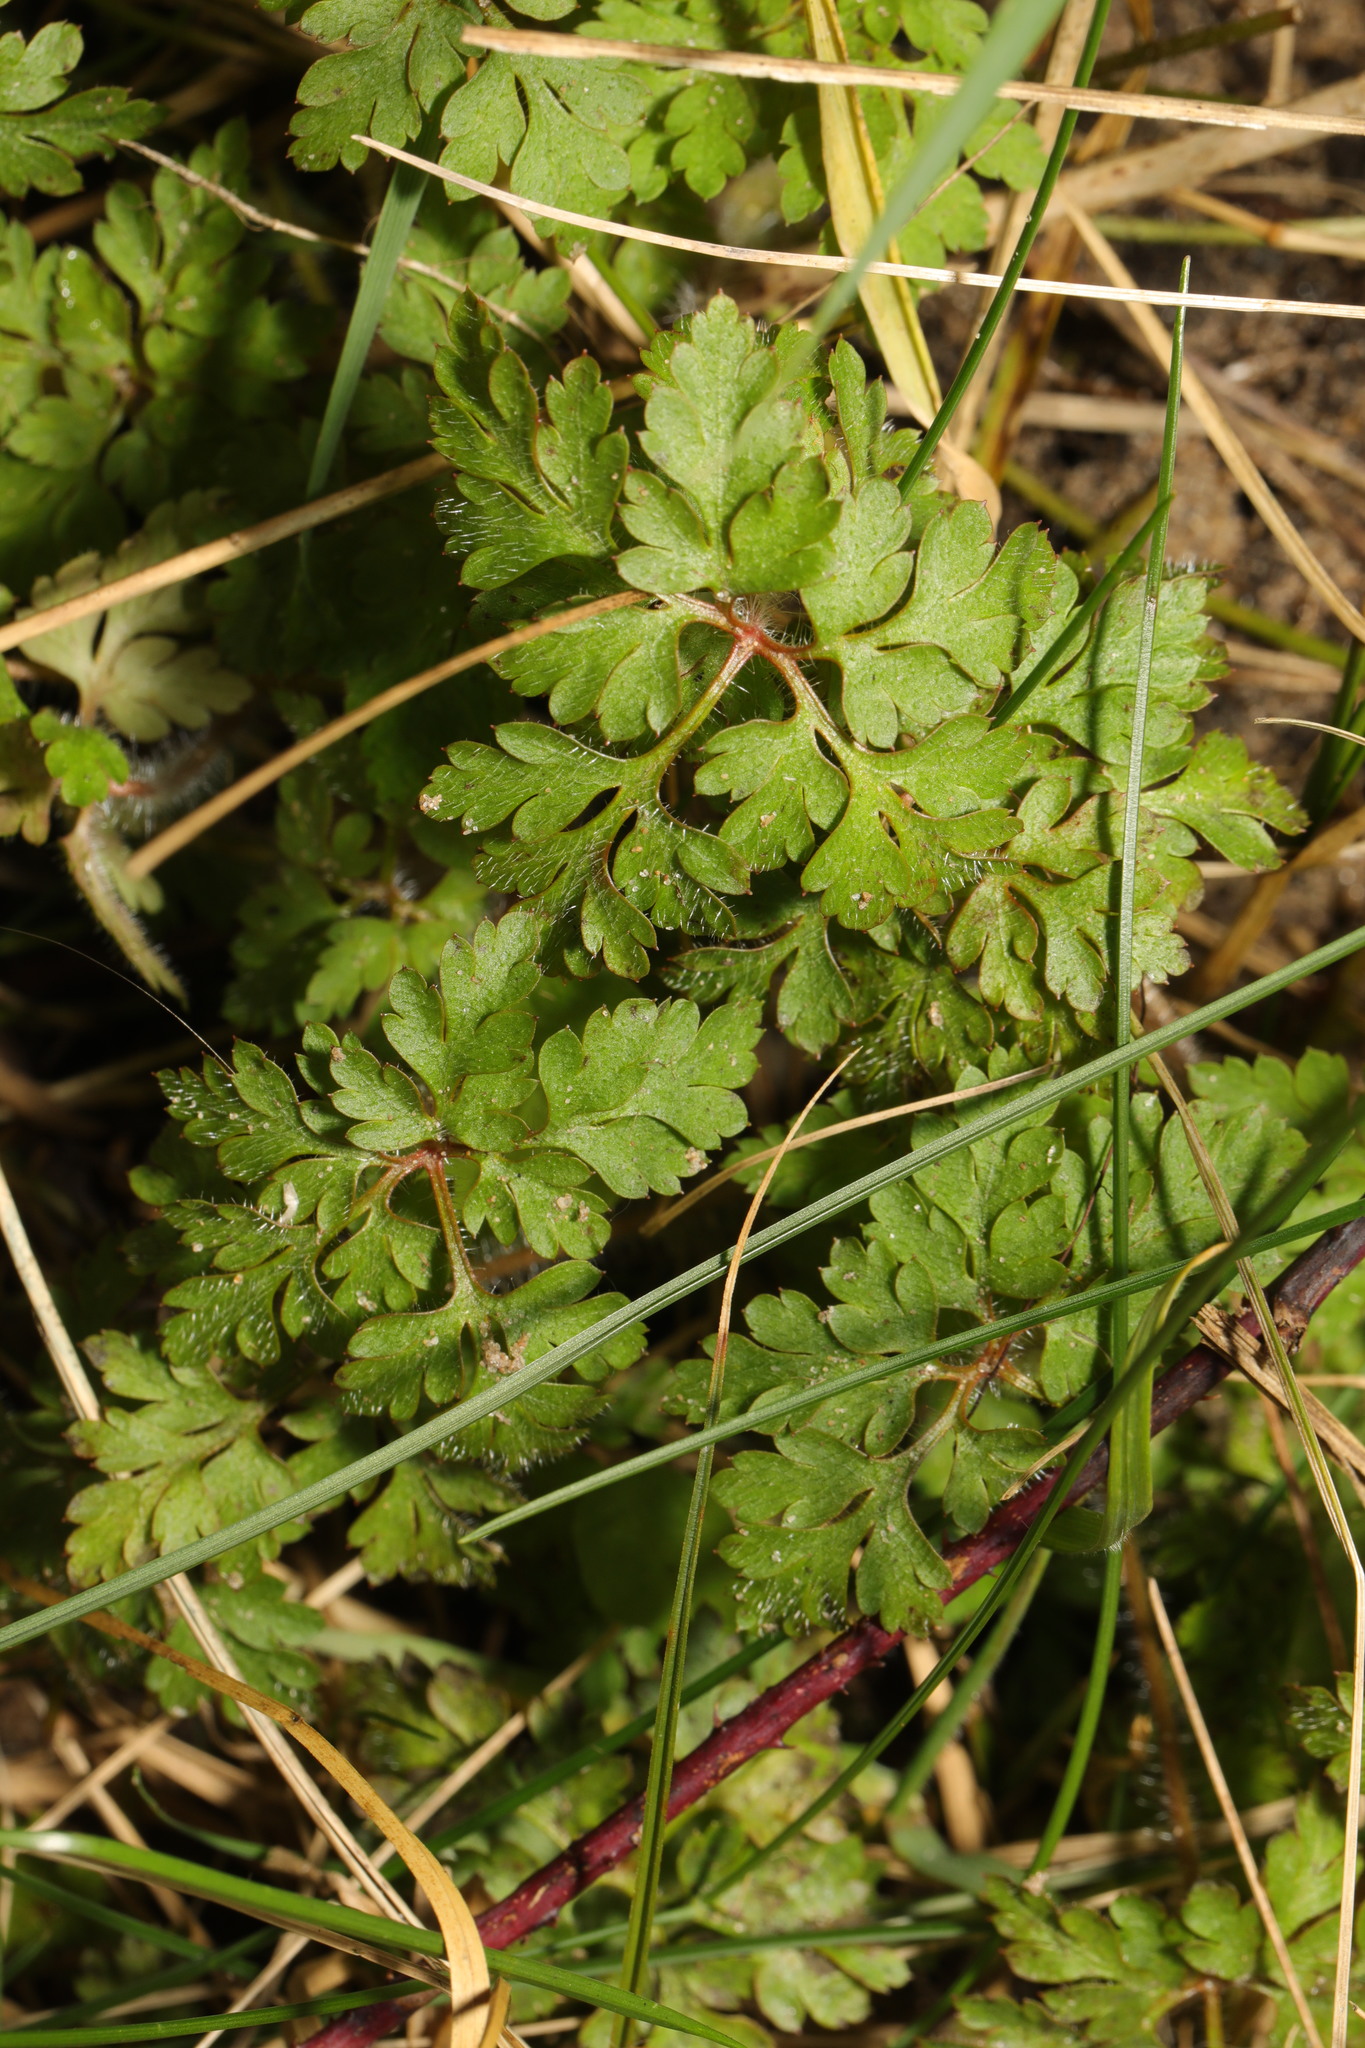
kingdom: Plantae
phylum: Tracheophyta
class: Magnoliopsida
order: Geraniales
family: Geraniaceae
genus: Geranium
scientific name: Geranium robertianum
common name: Herb-robert
